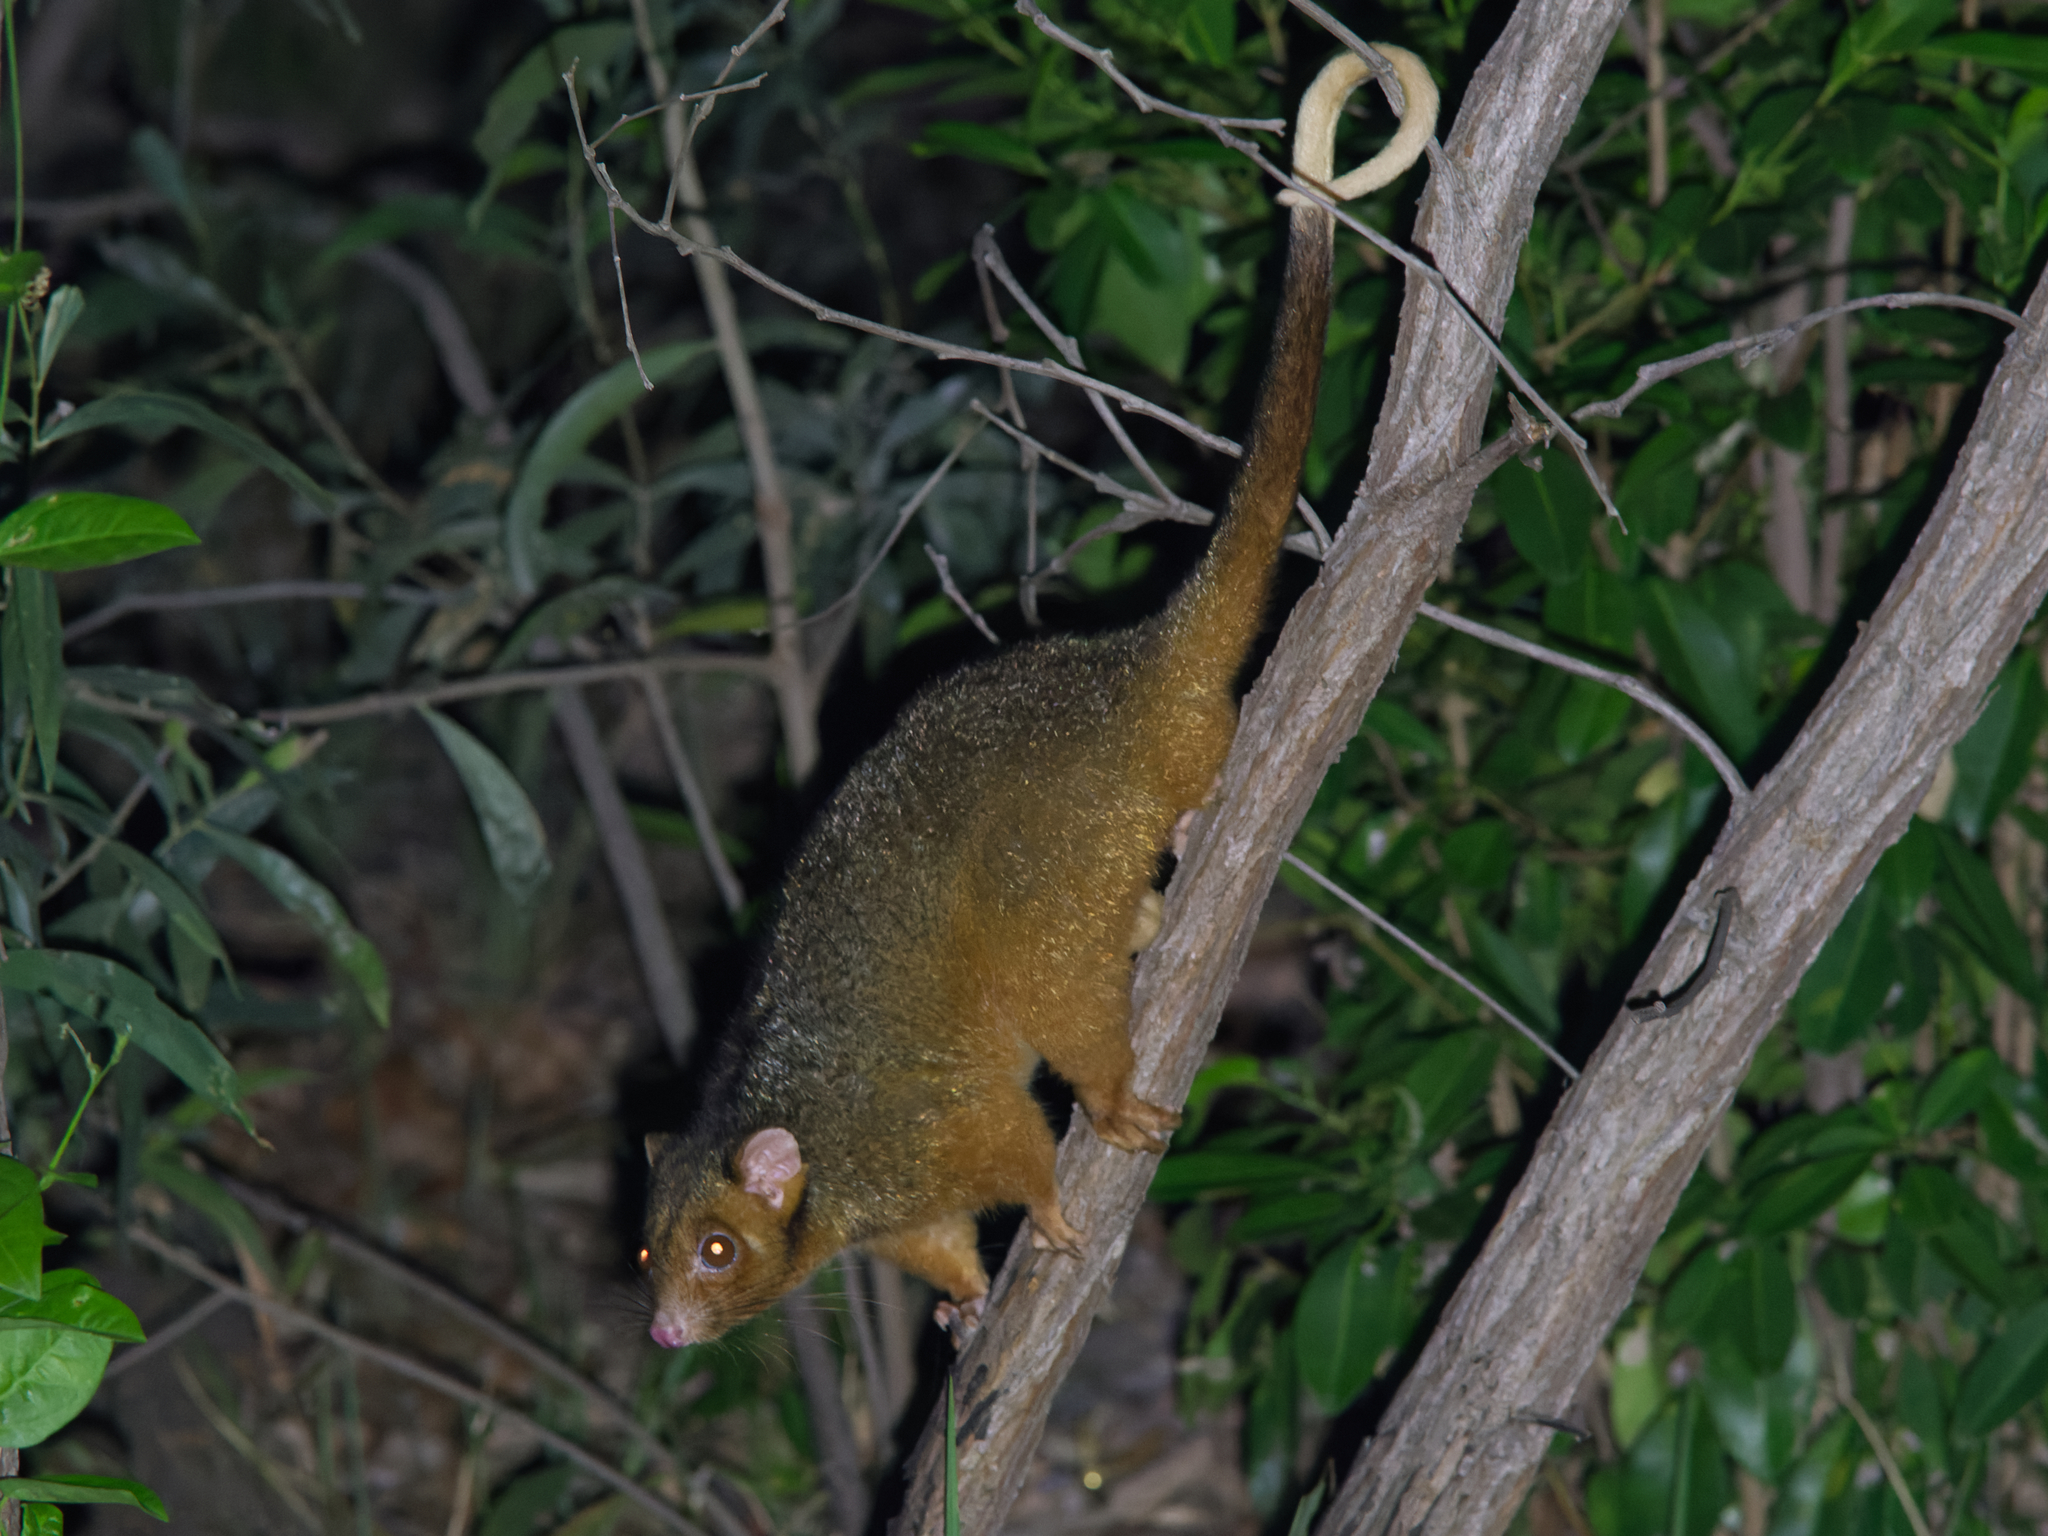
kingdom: Animalia
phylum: Chordata
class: Mammalia
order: Diprotodontia
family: Pseudocheiridae
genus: Pseudocheirus
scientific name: Pseudocheirus peregrinus
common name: Common ringtail possum
